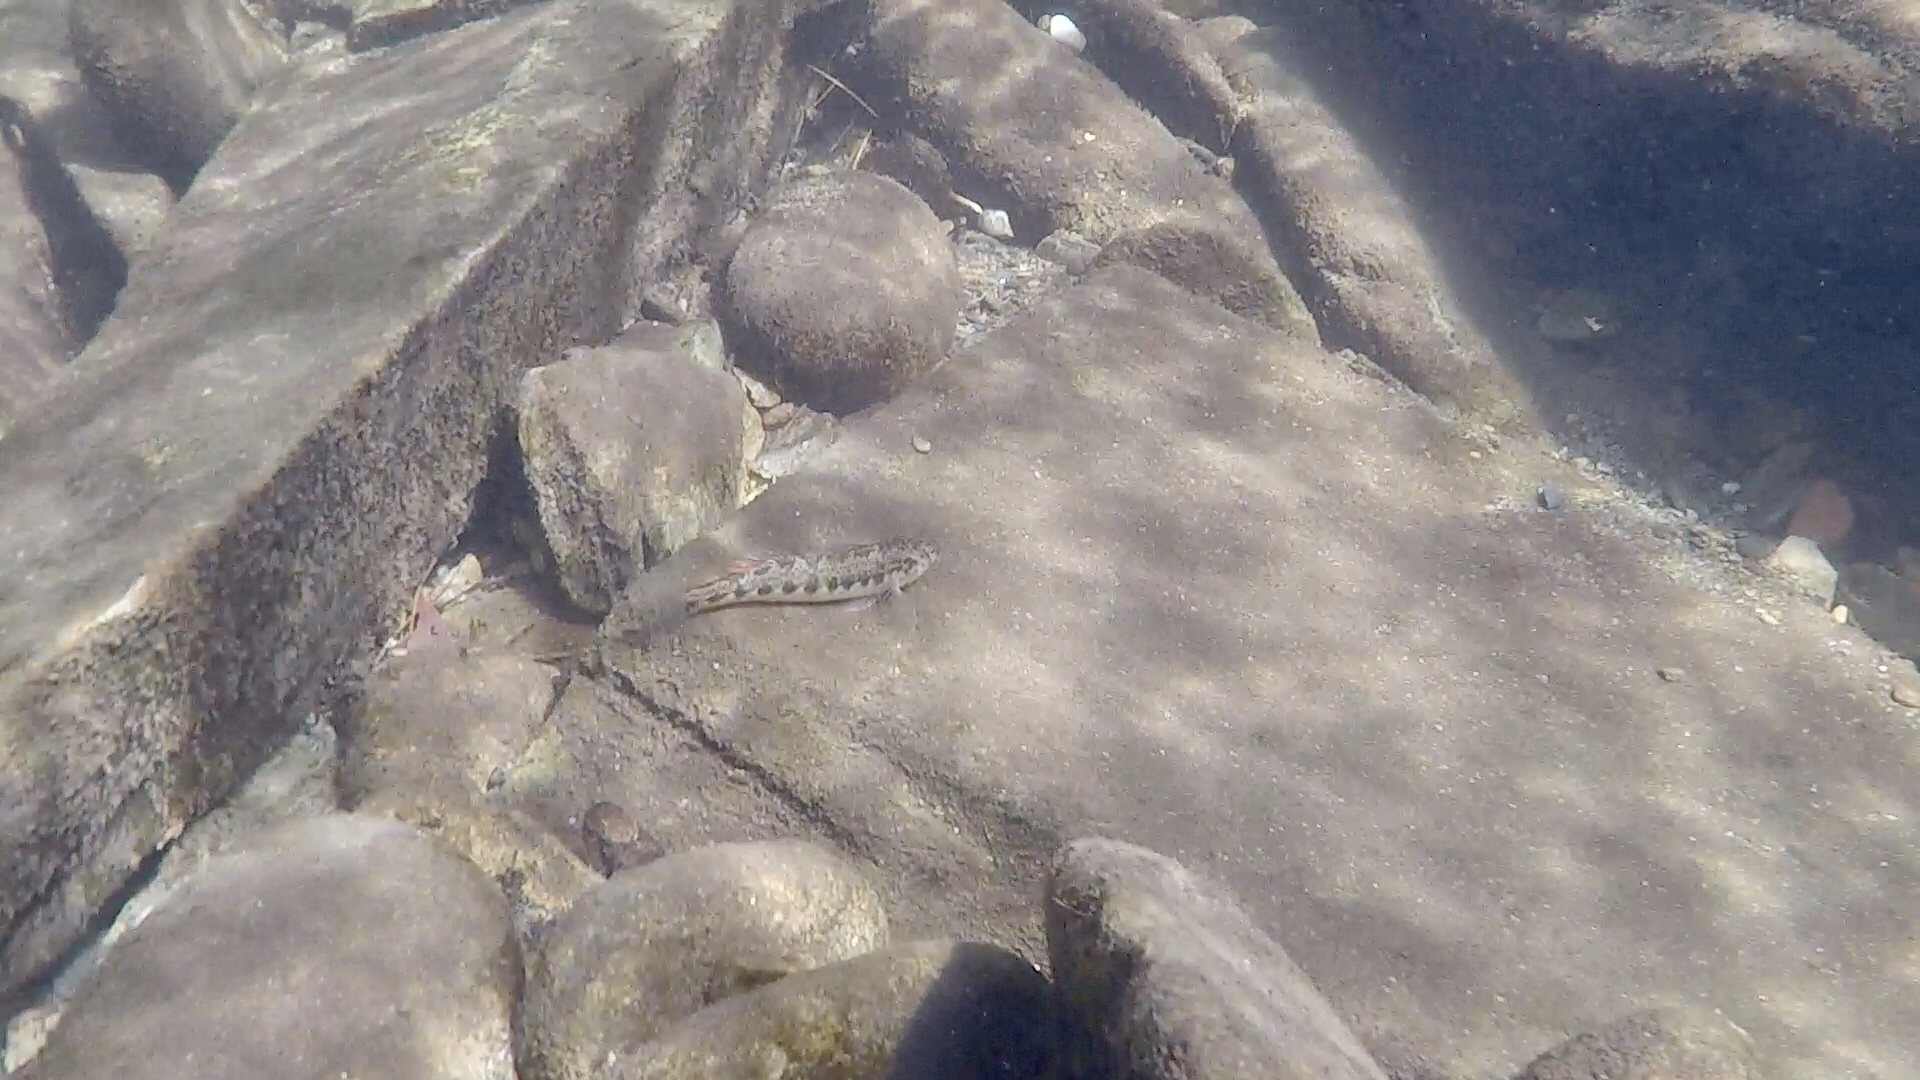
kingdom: Animalia
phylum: Chordata
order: Perciformes
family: Percidae
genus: Etheostoma
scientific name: Etheostoma simoterum
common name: Snubnose darter
